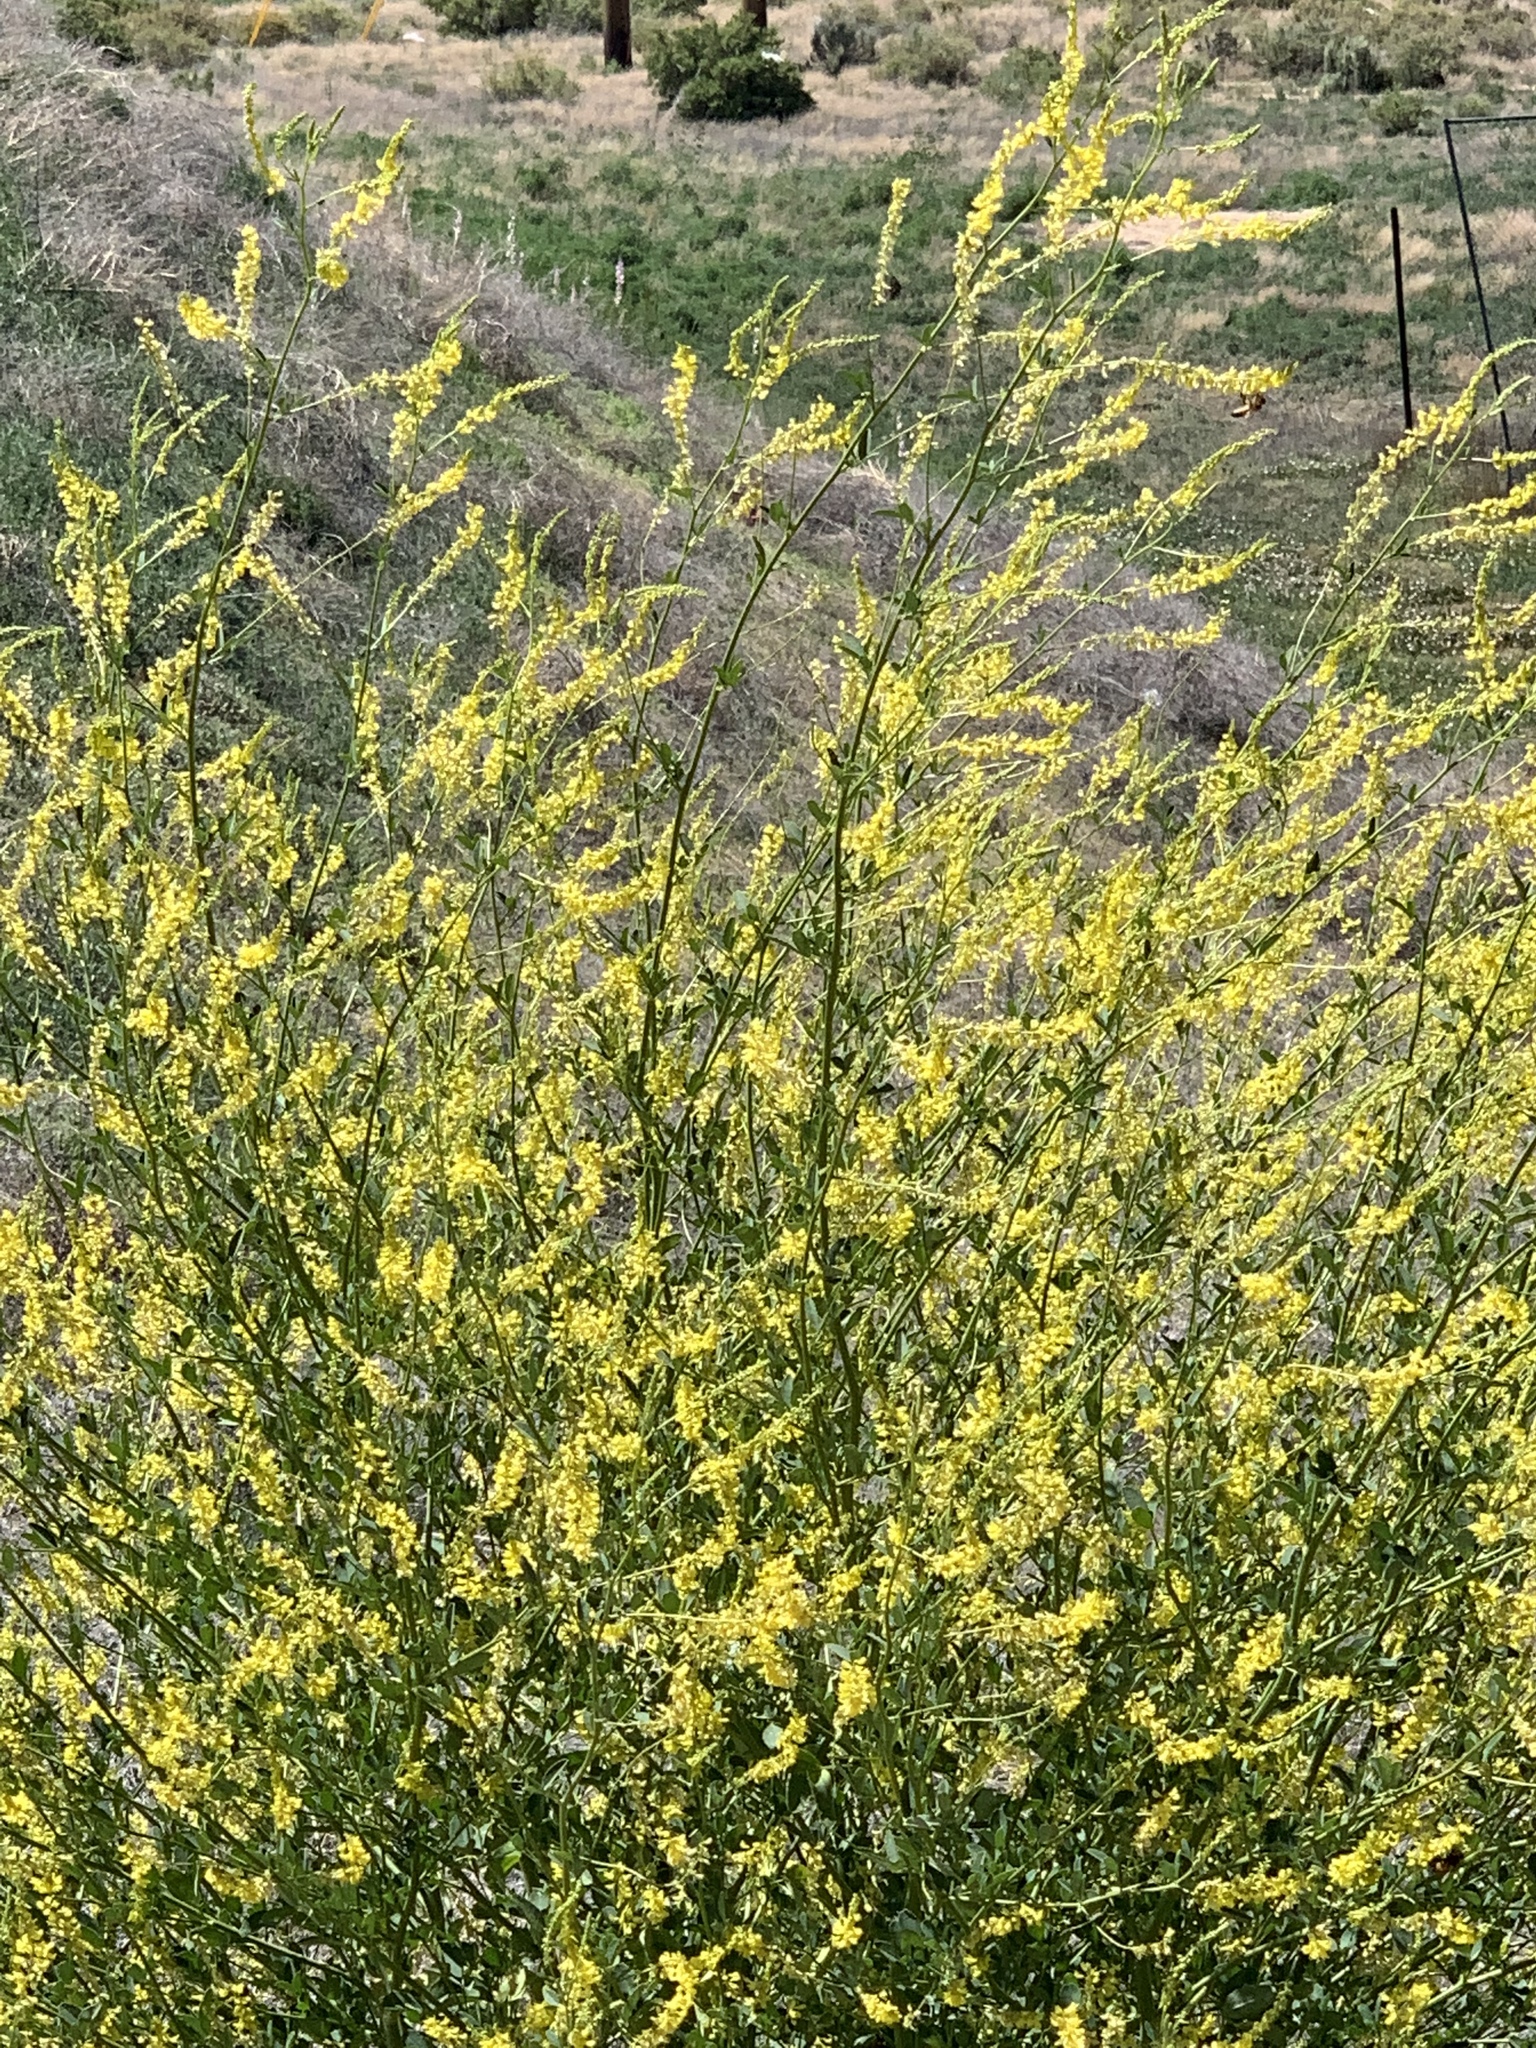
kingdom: Plantae
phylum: Tracheophyta
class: Magnoliopsida
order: Fabales
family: Fabaceae
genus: Melilotus
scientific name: Melilotus officinalis
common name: Sweetclover
